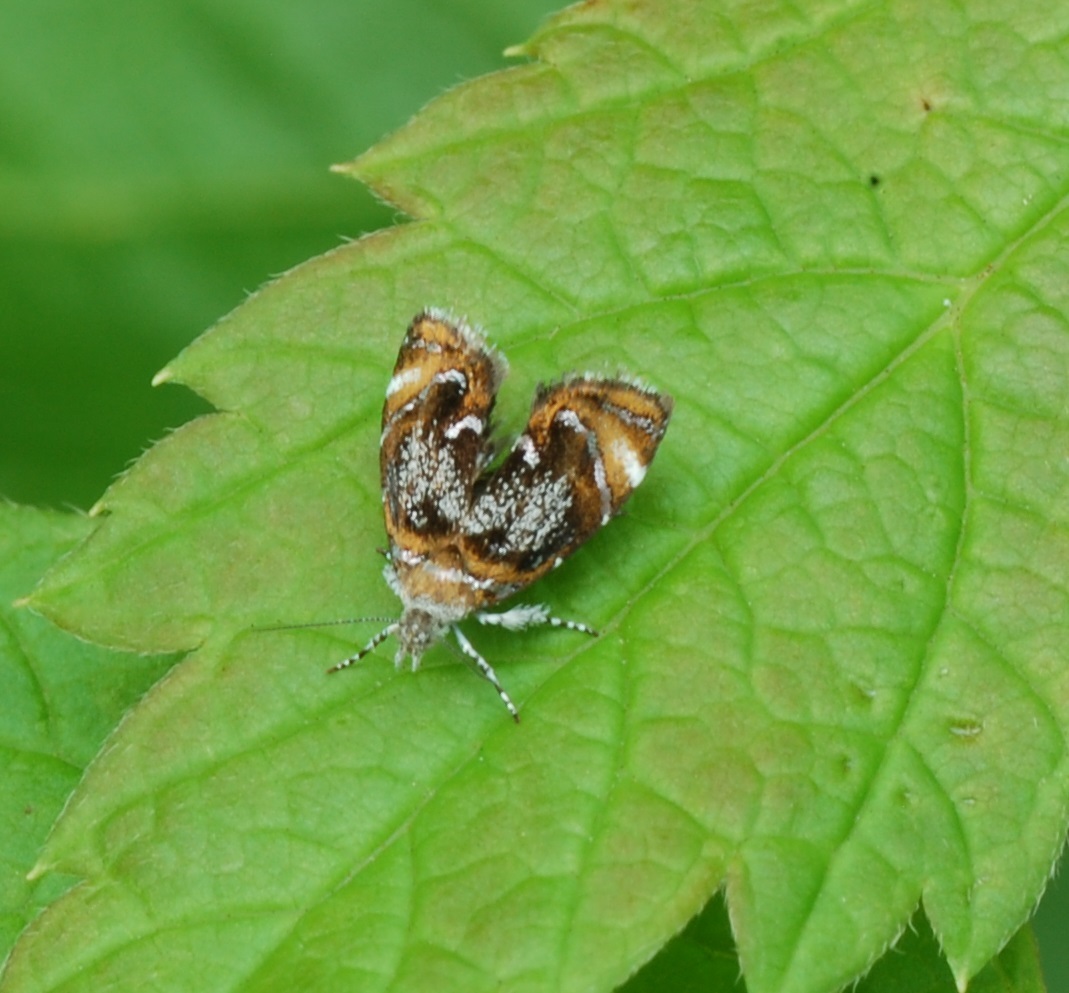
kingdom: Animalia
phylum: Arthropoda
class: Insecta
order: Lepidoptera
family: Choreutidae
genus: Prochoreutis
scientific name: Prochoreutis inflatella
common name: Skullcap skeletonizer moth
